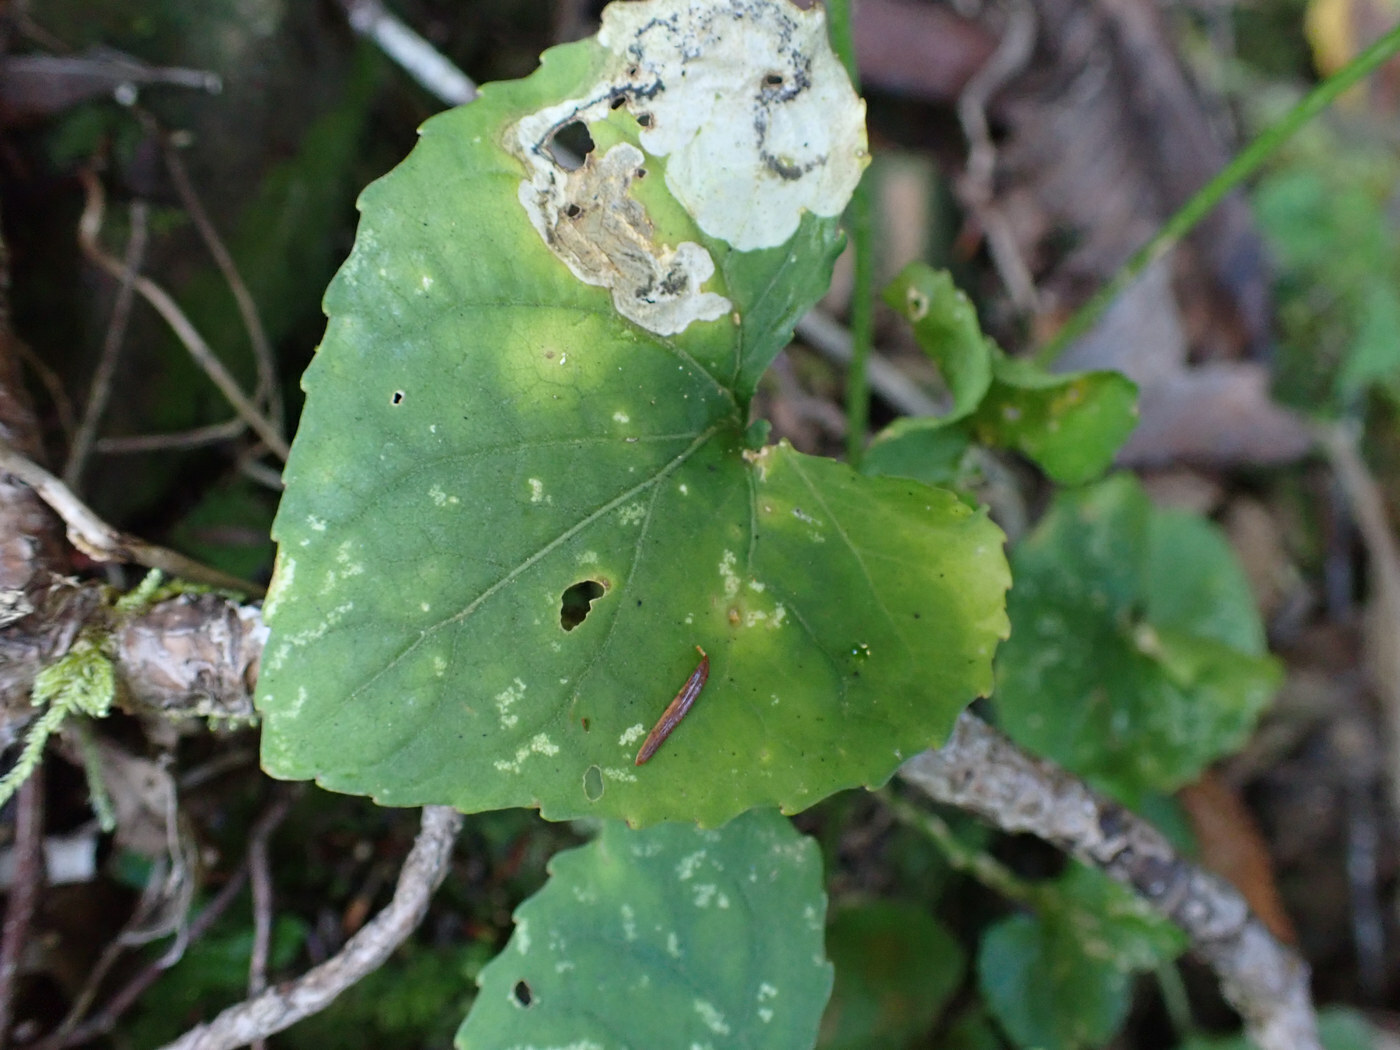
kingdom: Animalia
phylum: Arthropoda
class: Insecta
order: Hymenoptera
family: Tenthredinidae
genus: Nefusa
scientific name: Nefusa ambigua
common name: Violet leafmining sawfly
